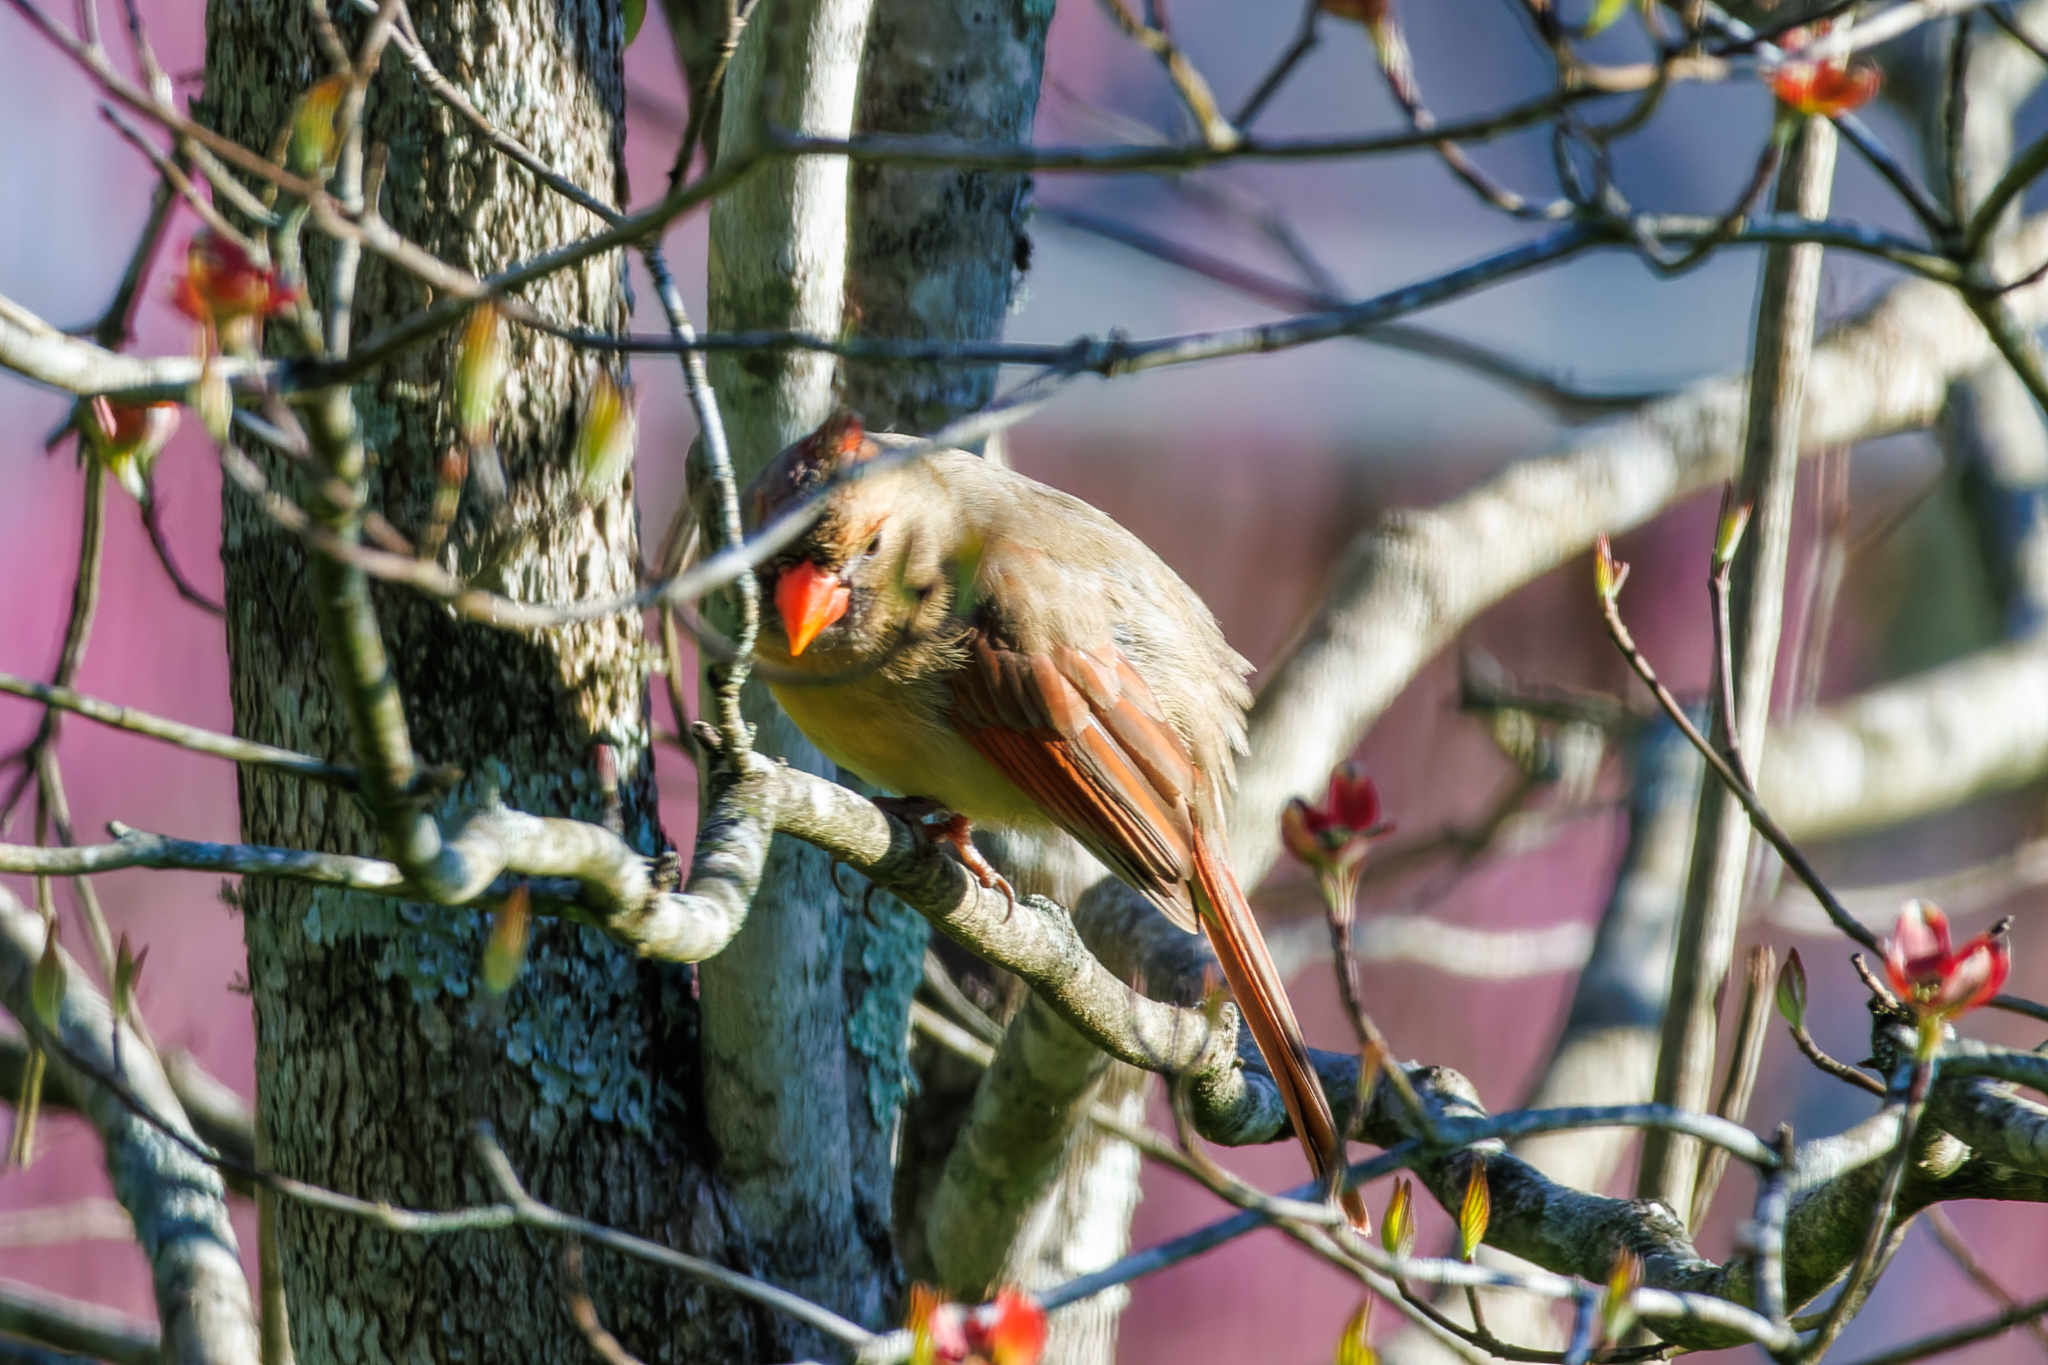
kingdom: Animalia
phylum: Chordata
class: Aves
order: Passeriformes
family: Cardinalidae
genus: Cardinalis
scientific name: Cardinalis cardinalis
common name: Northern cardinal
